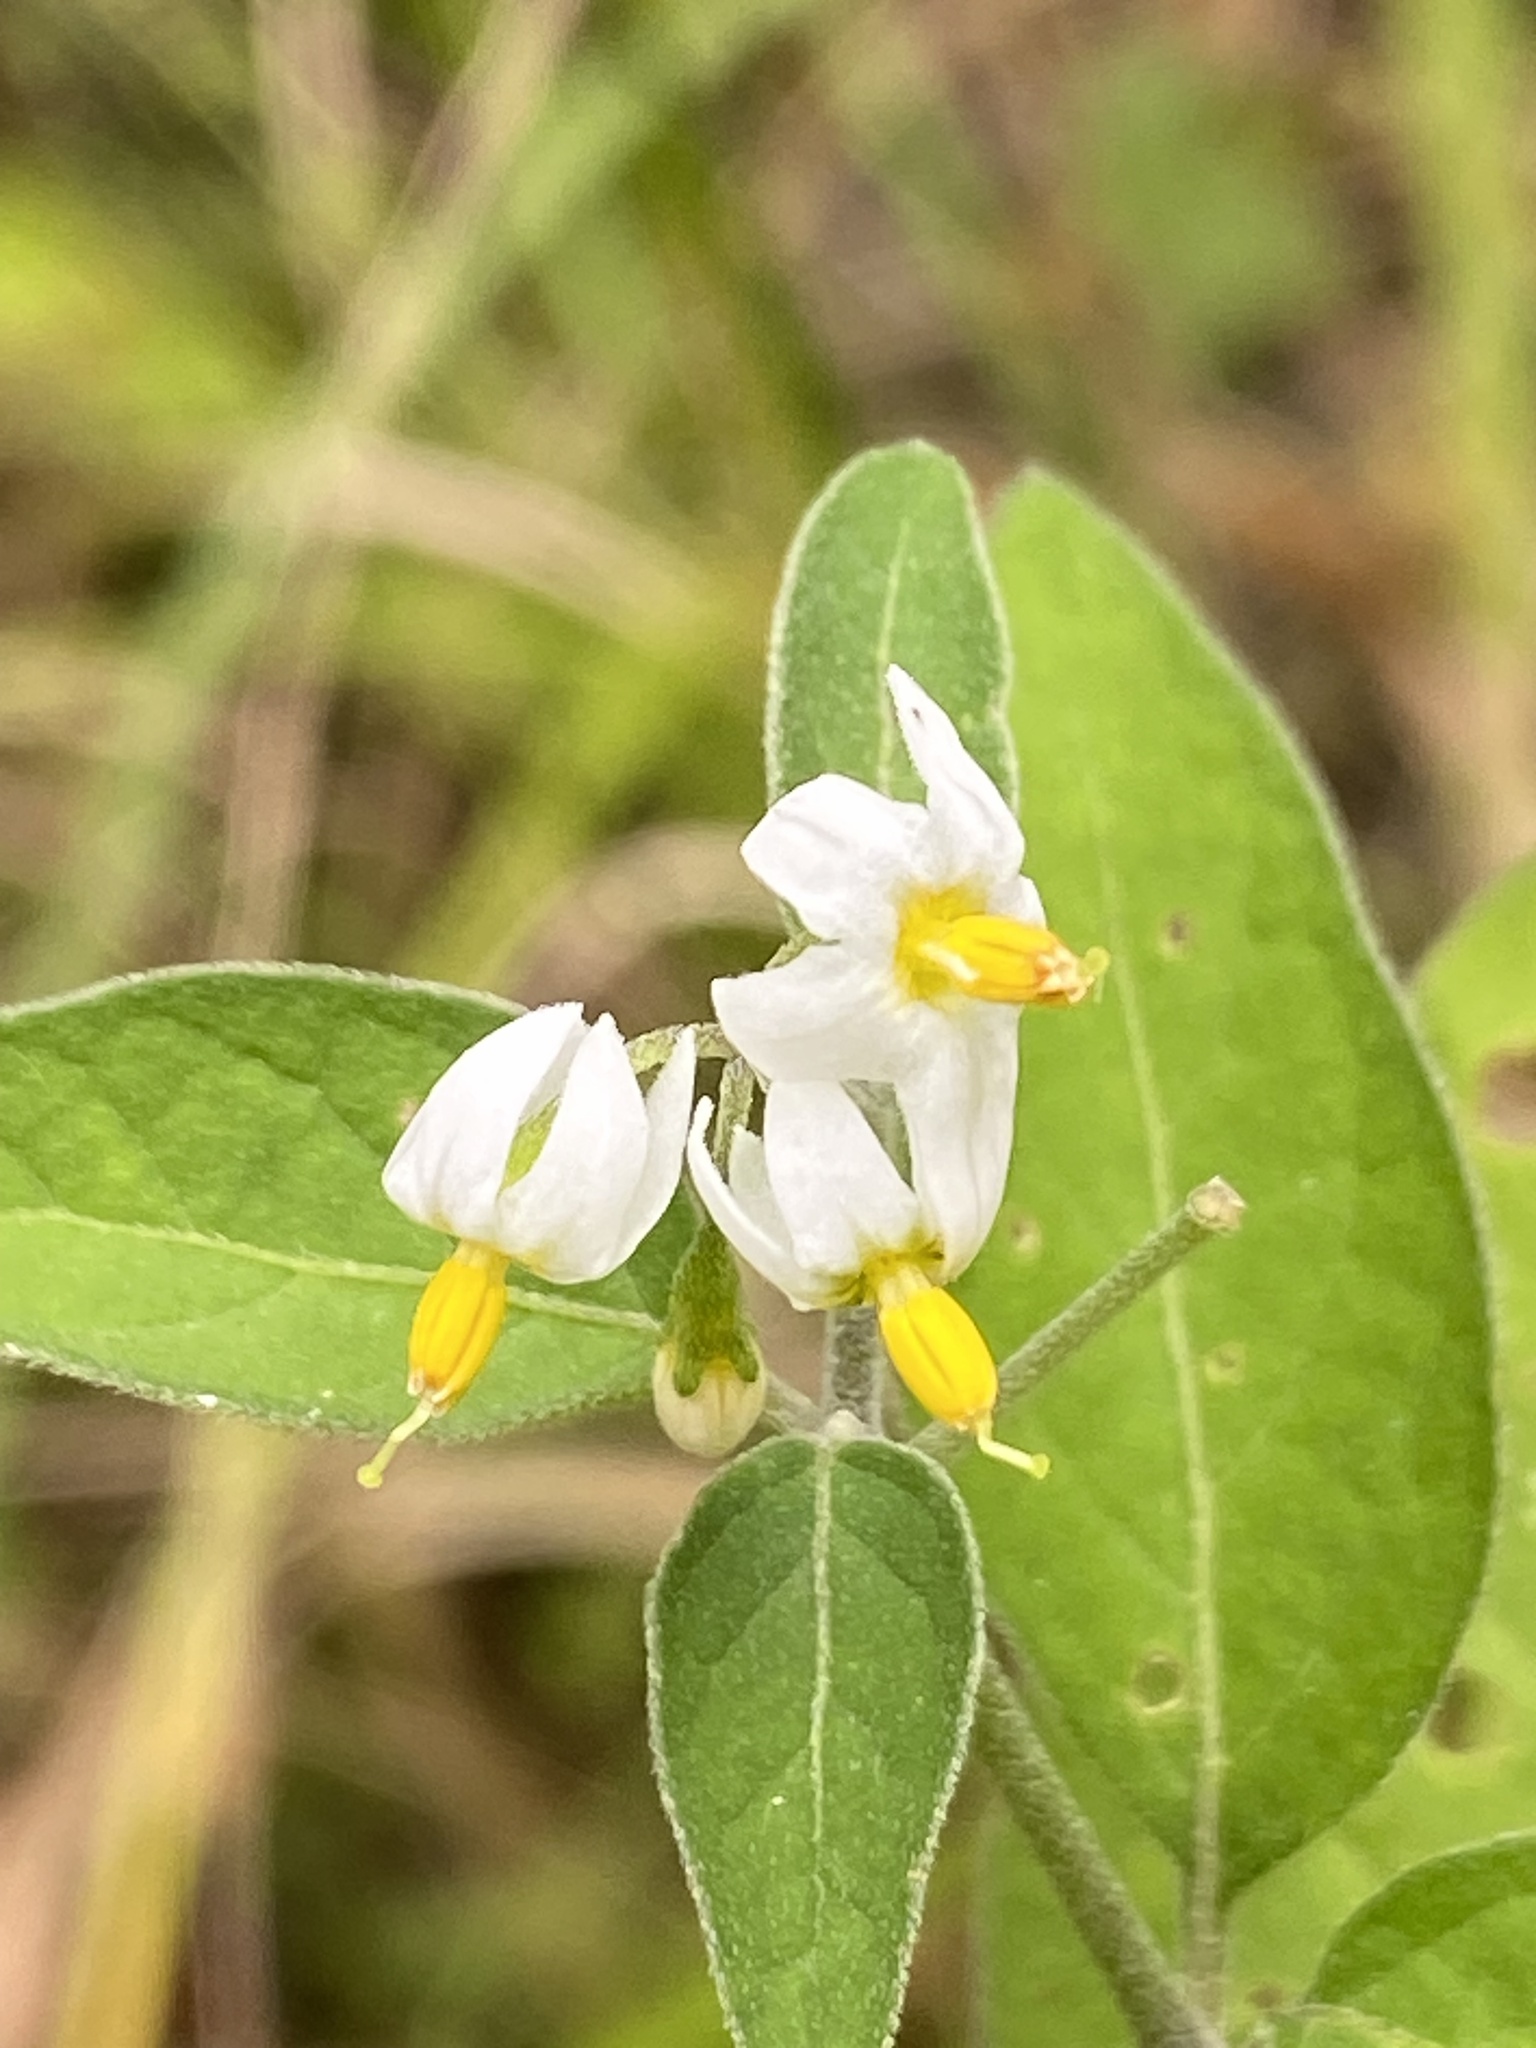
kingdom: Plantae
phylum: Tracheophyta
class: Magnoliopsida
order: Solanales
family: Solanaceae
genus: Solanum
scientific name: Solanum chenopodioides
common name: Tall nightshade
